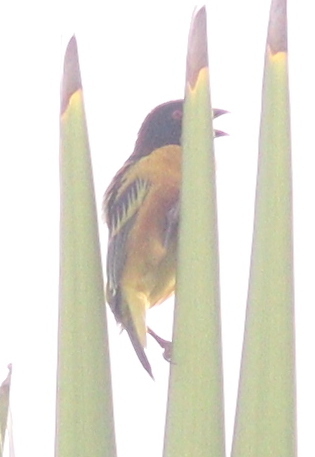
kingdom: Animalia
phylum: Chordata
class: Aves
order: Passeriformes
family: Ploceidae
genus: Ploceus
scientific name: Ploceus cucullatus
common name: Village weaver
